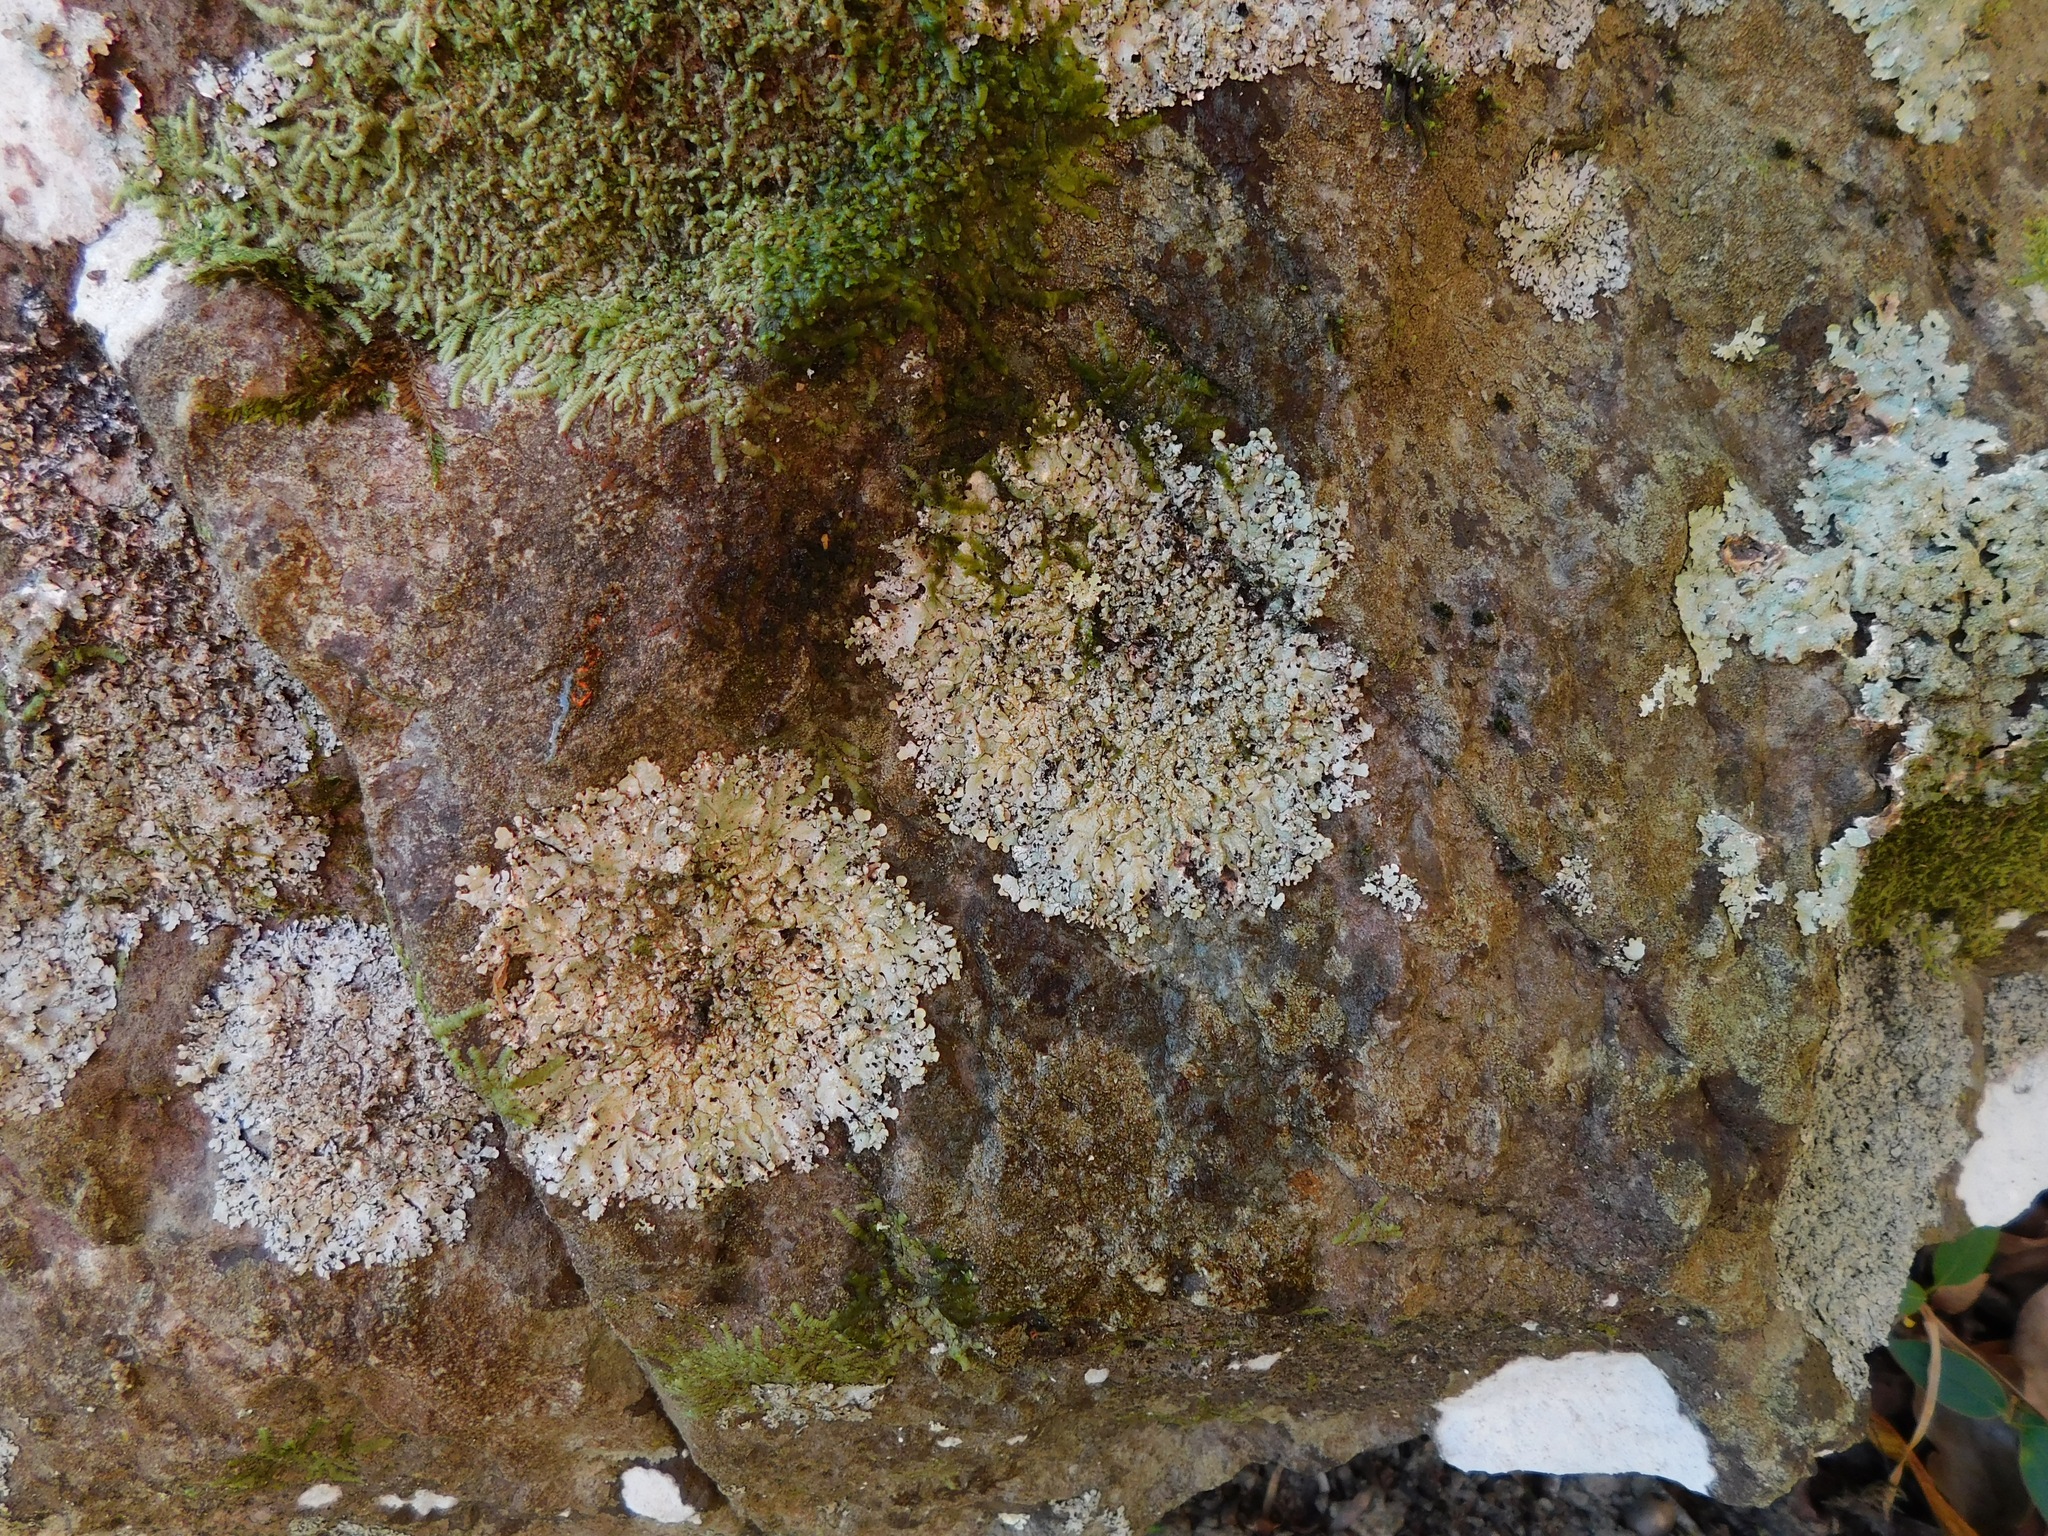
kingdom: Fungi
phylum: Ascomycota
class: Lecanoromycetes
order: Lecanorales
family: Parmeliaceae
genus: Myelochroa
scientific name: Myelochroa aurulenta
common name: Powdery axil-bristle lichen
